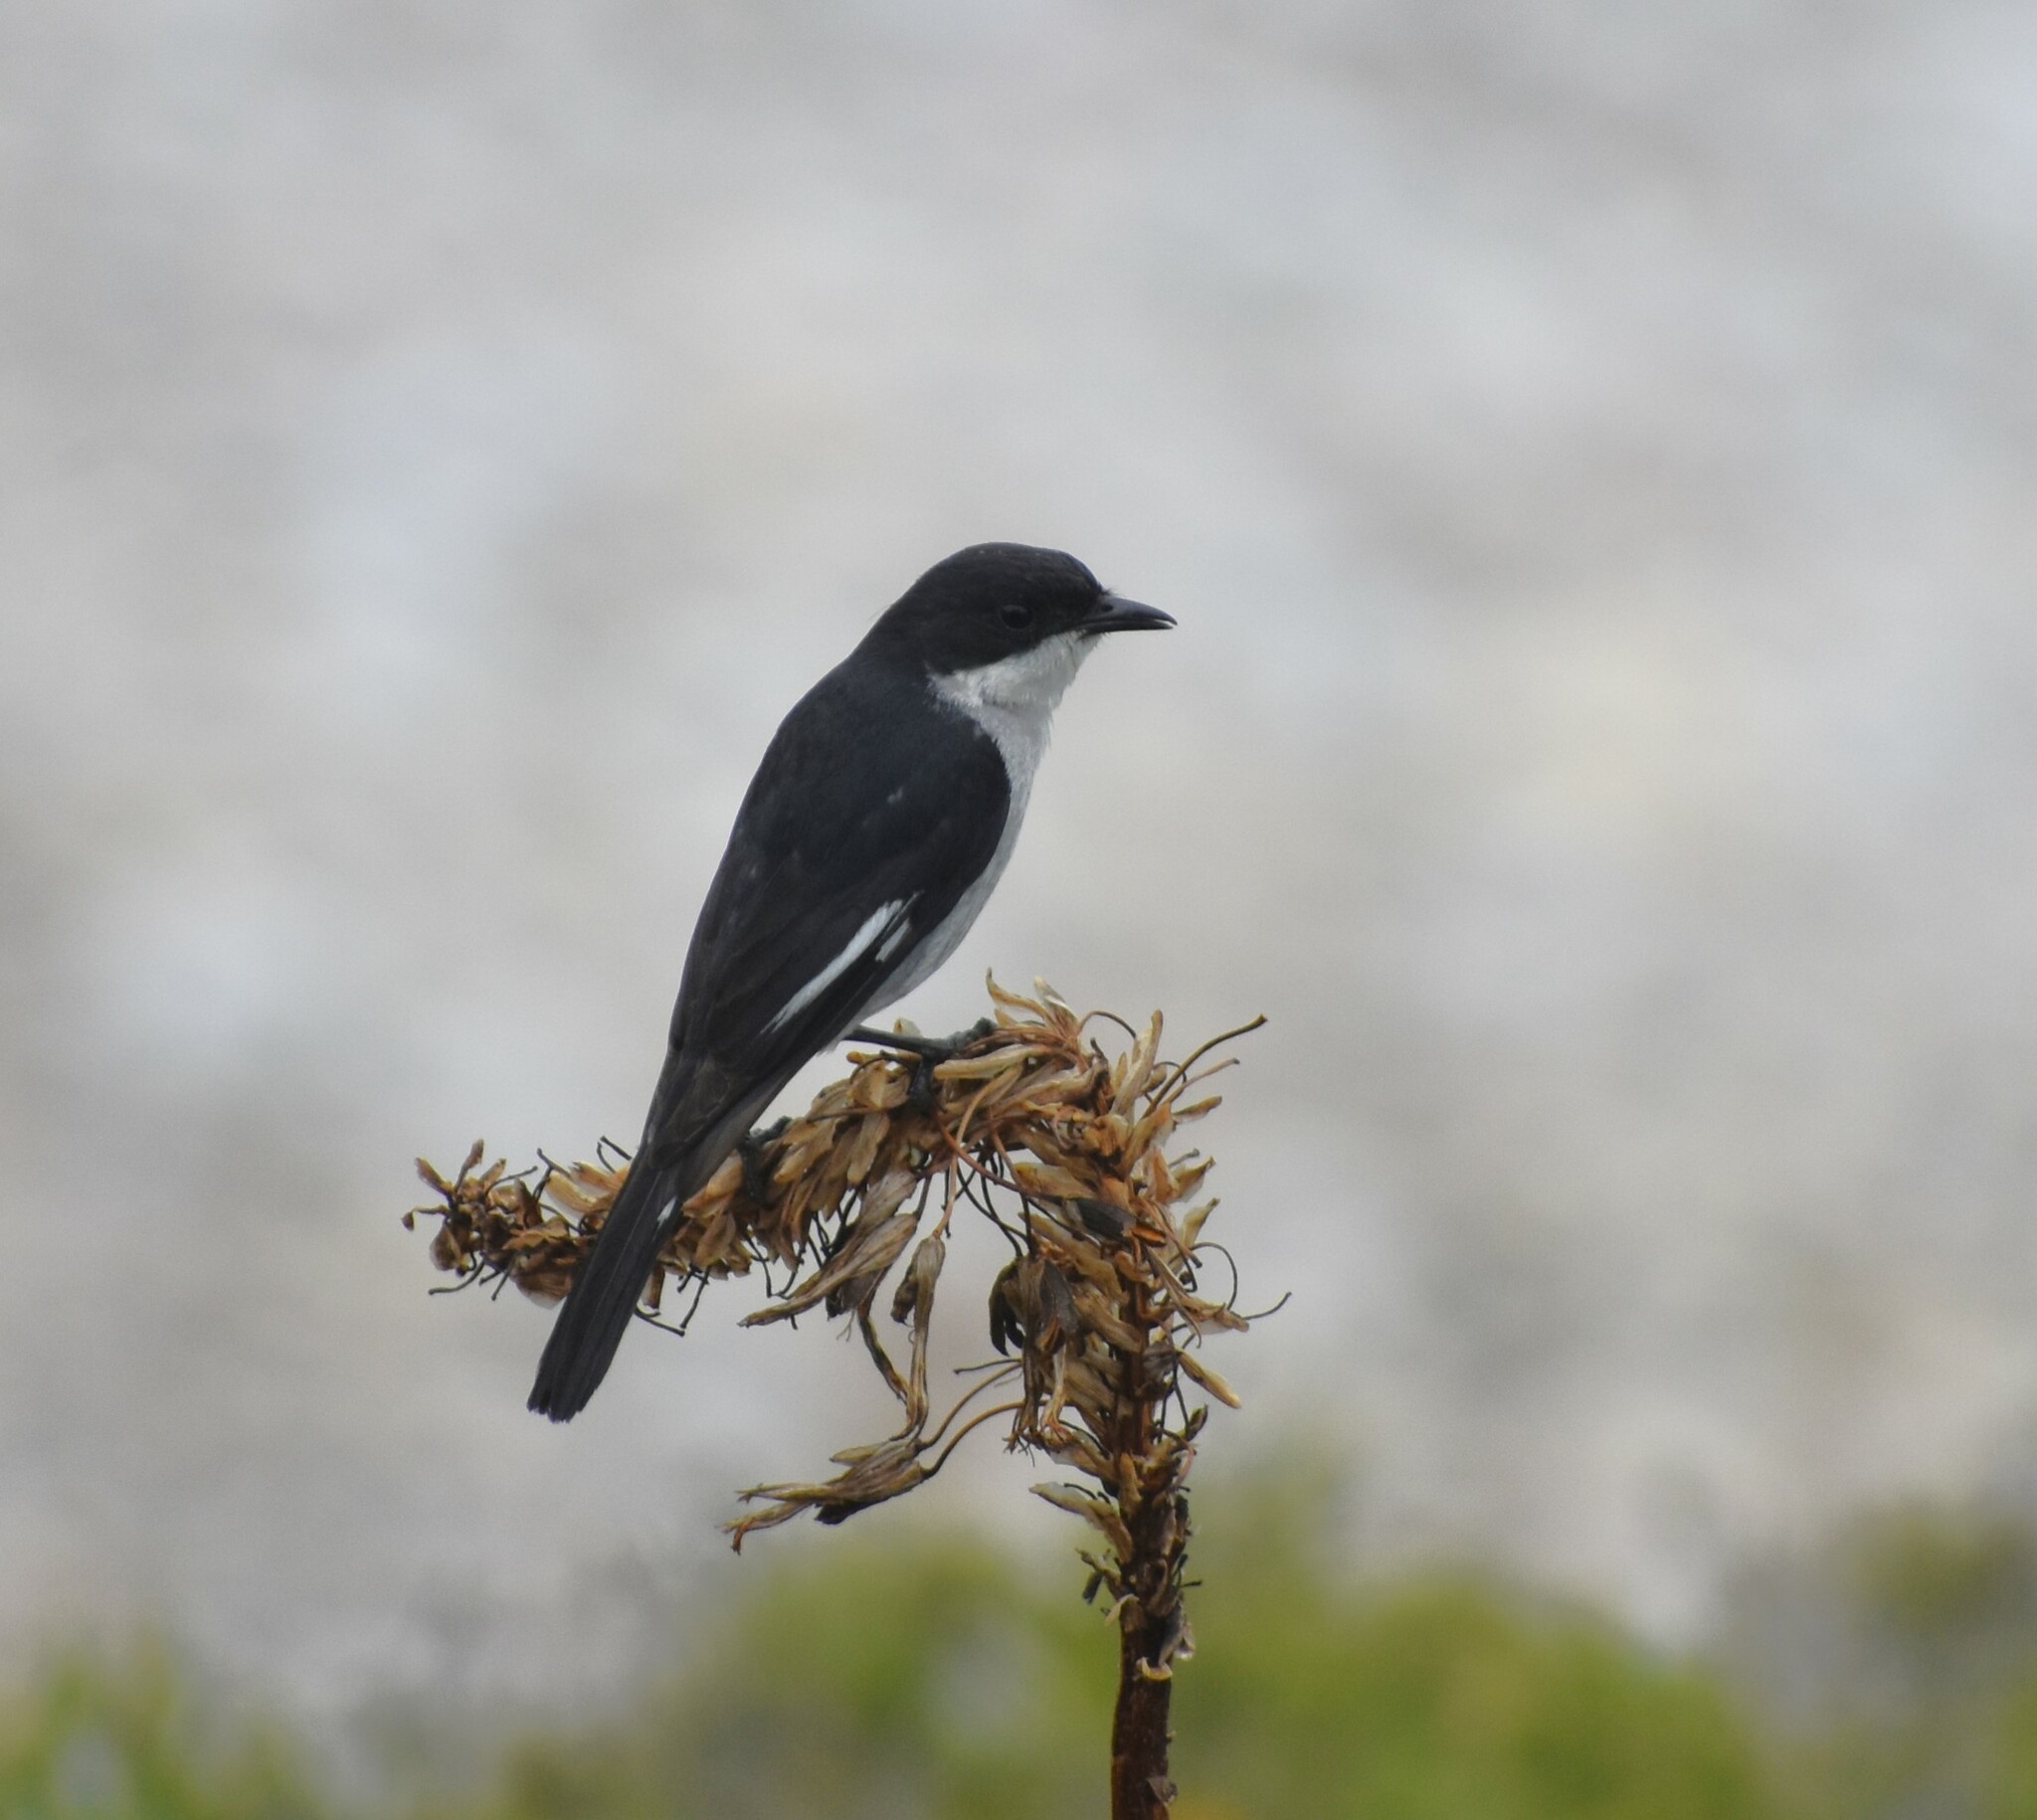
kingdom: Animalia
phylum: Chordata
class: Aves
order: Passeriformes
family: Muscicapidae
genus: Sigelus
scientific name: Sigelus silens
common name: Fiscal flycatcher
